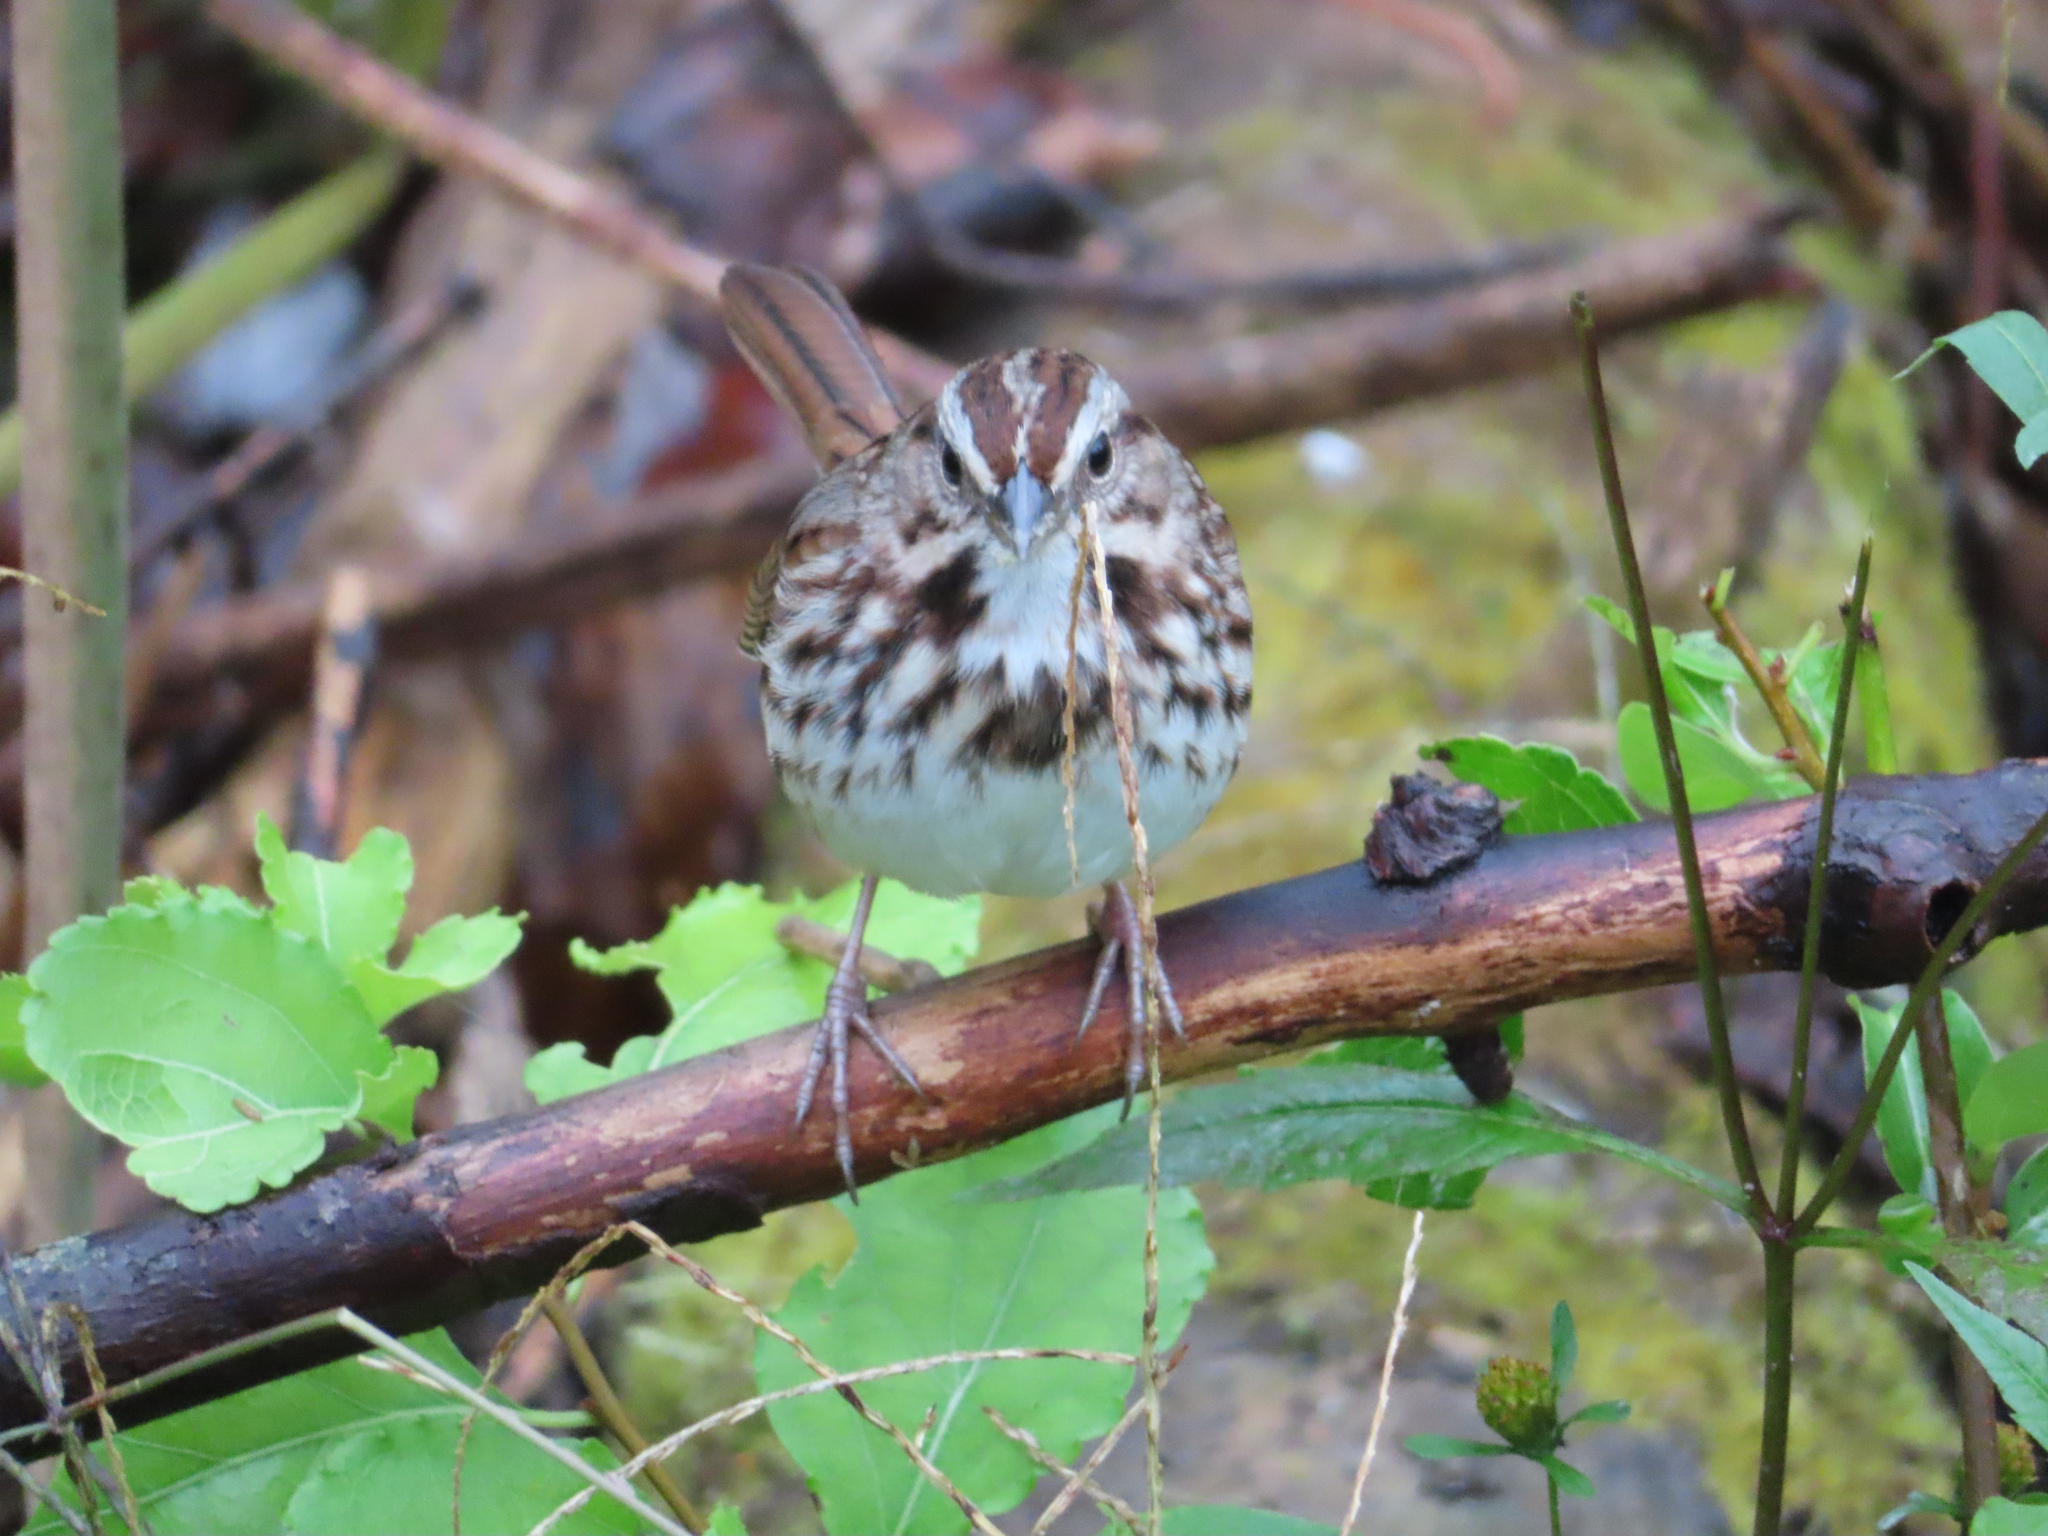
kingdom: Animalia
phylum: Chordata
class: Aves
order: Passeriformes
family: Passerellidae
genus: Melospiza
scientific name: Melospiza melodia
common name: Song sparrow
